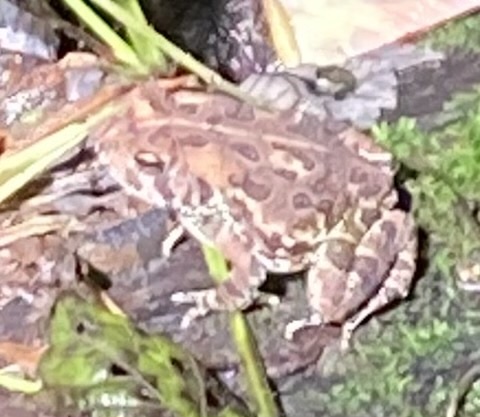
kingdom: Animalia
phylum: Chordata
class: Amphibia
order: Anura
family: Bufonidae
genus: Anaxyrus
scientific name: Anaxyrus fowleri
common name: Fowler's toad
